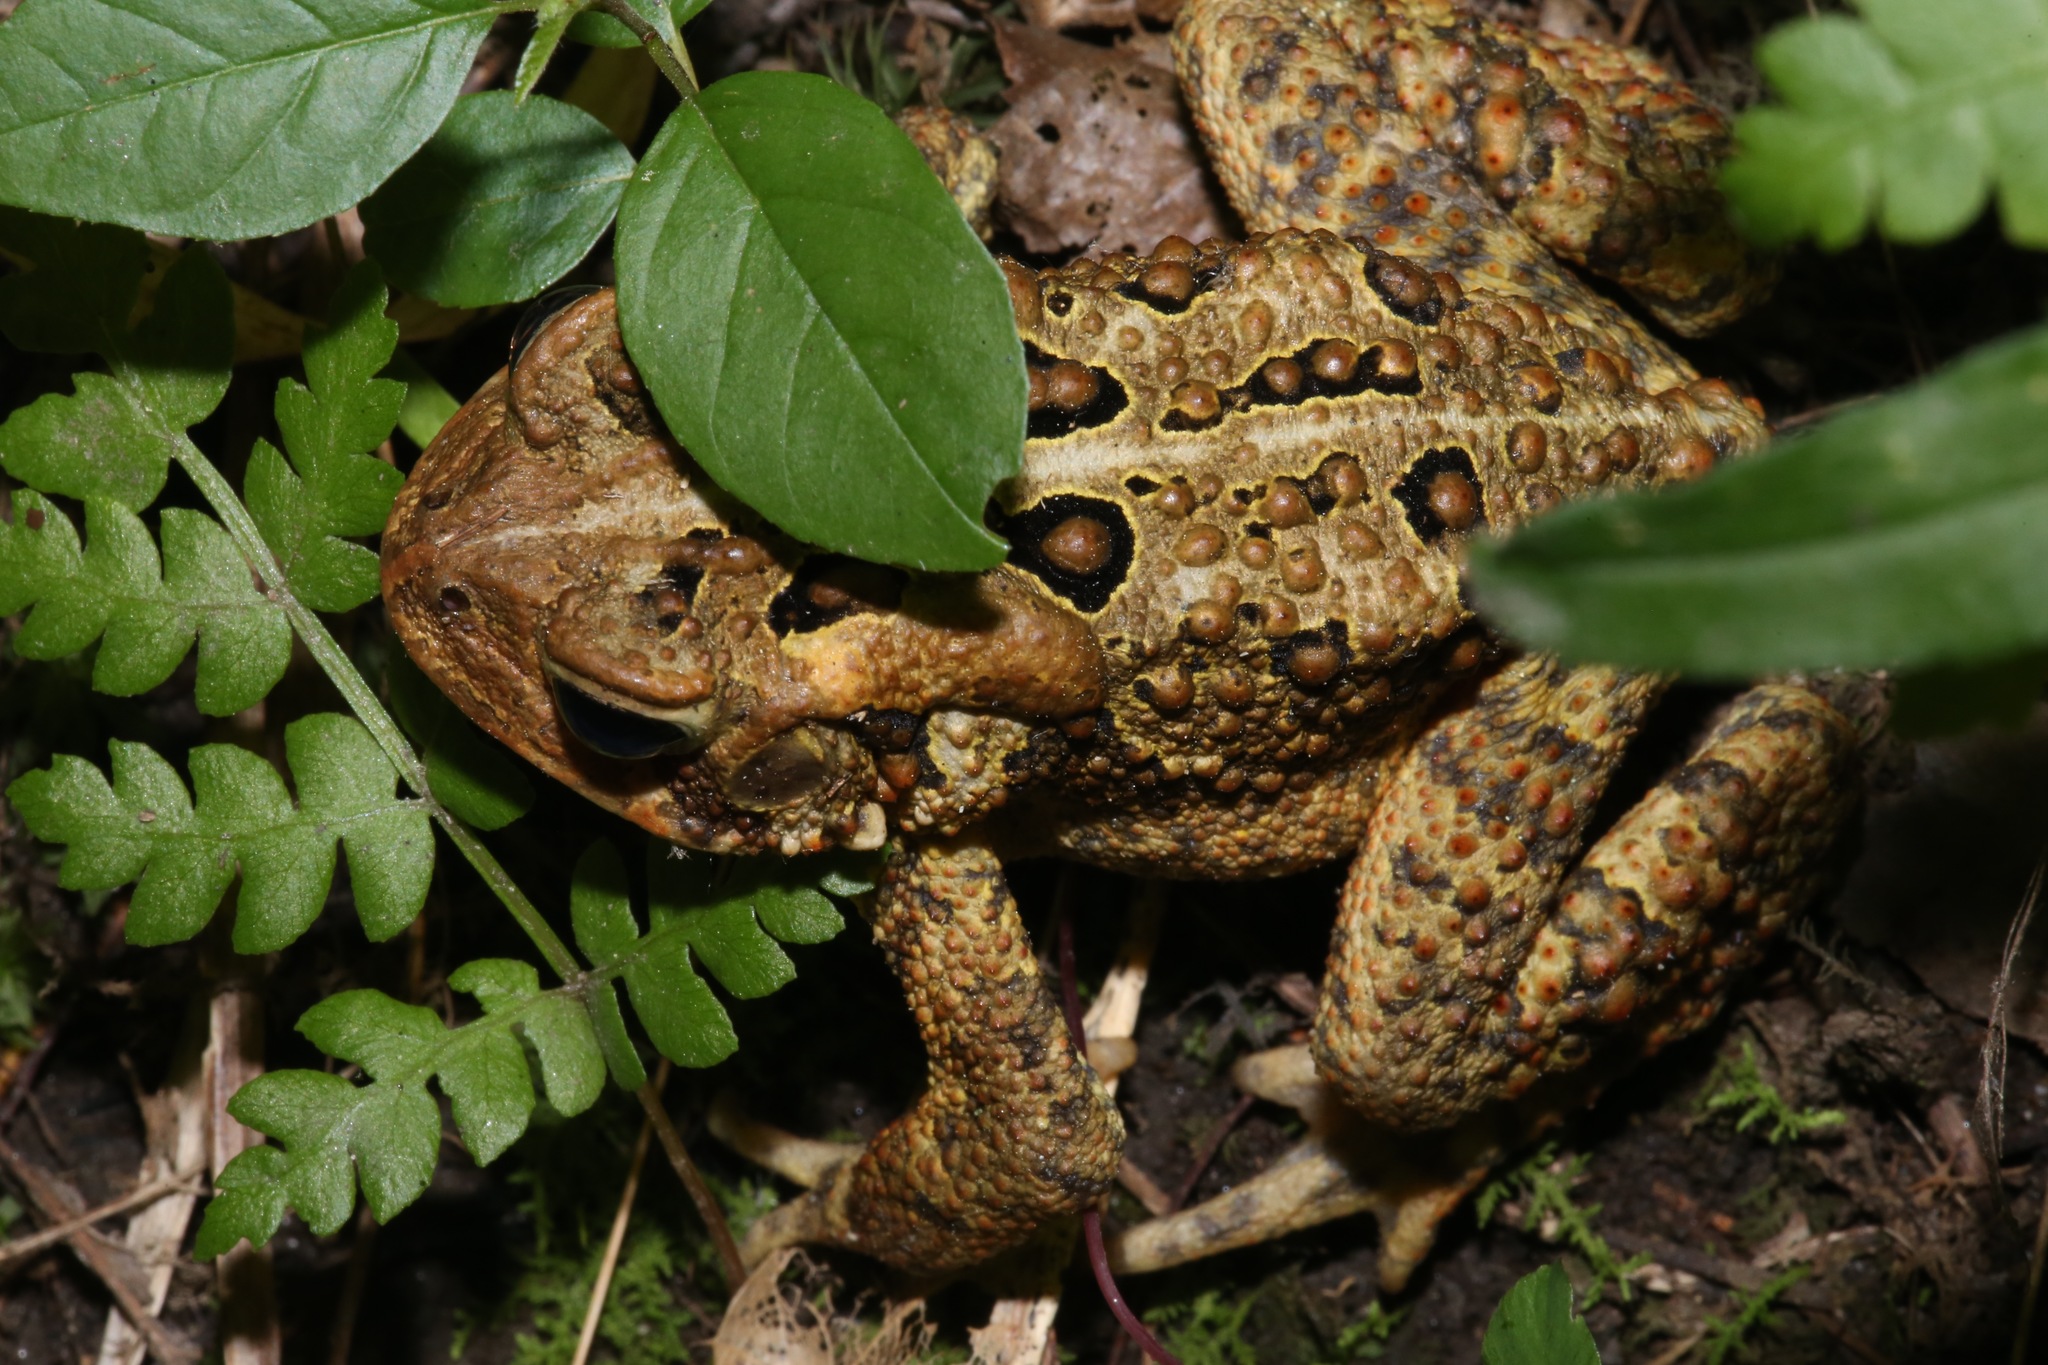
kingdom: Animalia
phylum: Chordata
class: Amphibia
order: Anura
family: Bufonidae
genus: Anaxyrus
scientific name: Anaxyrus americanus
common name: American toad
